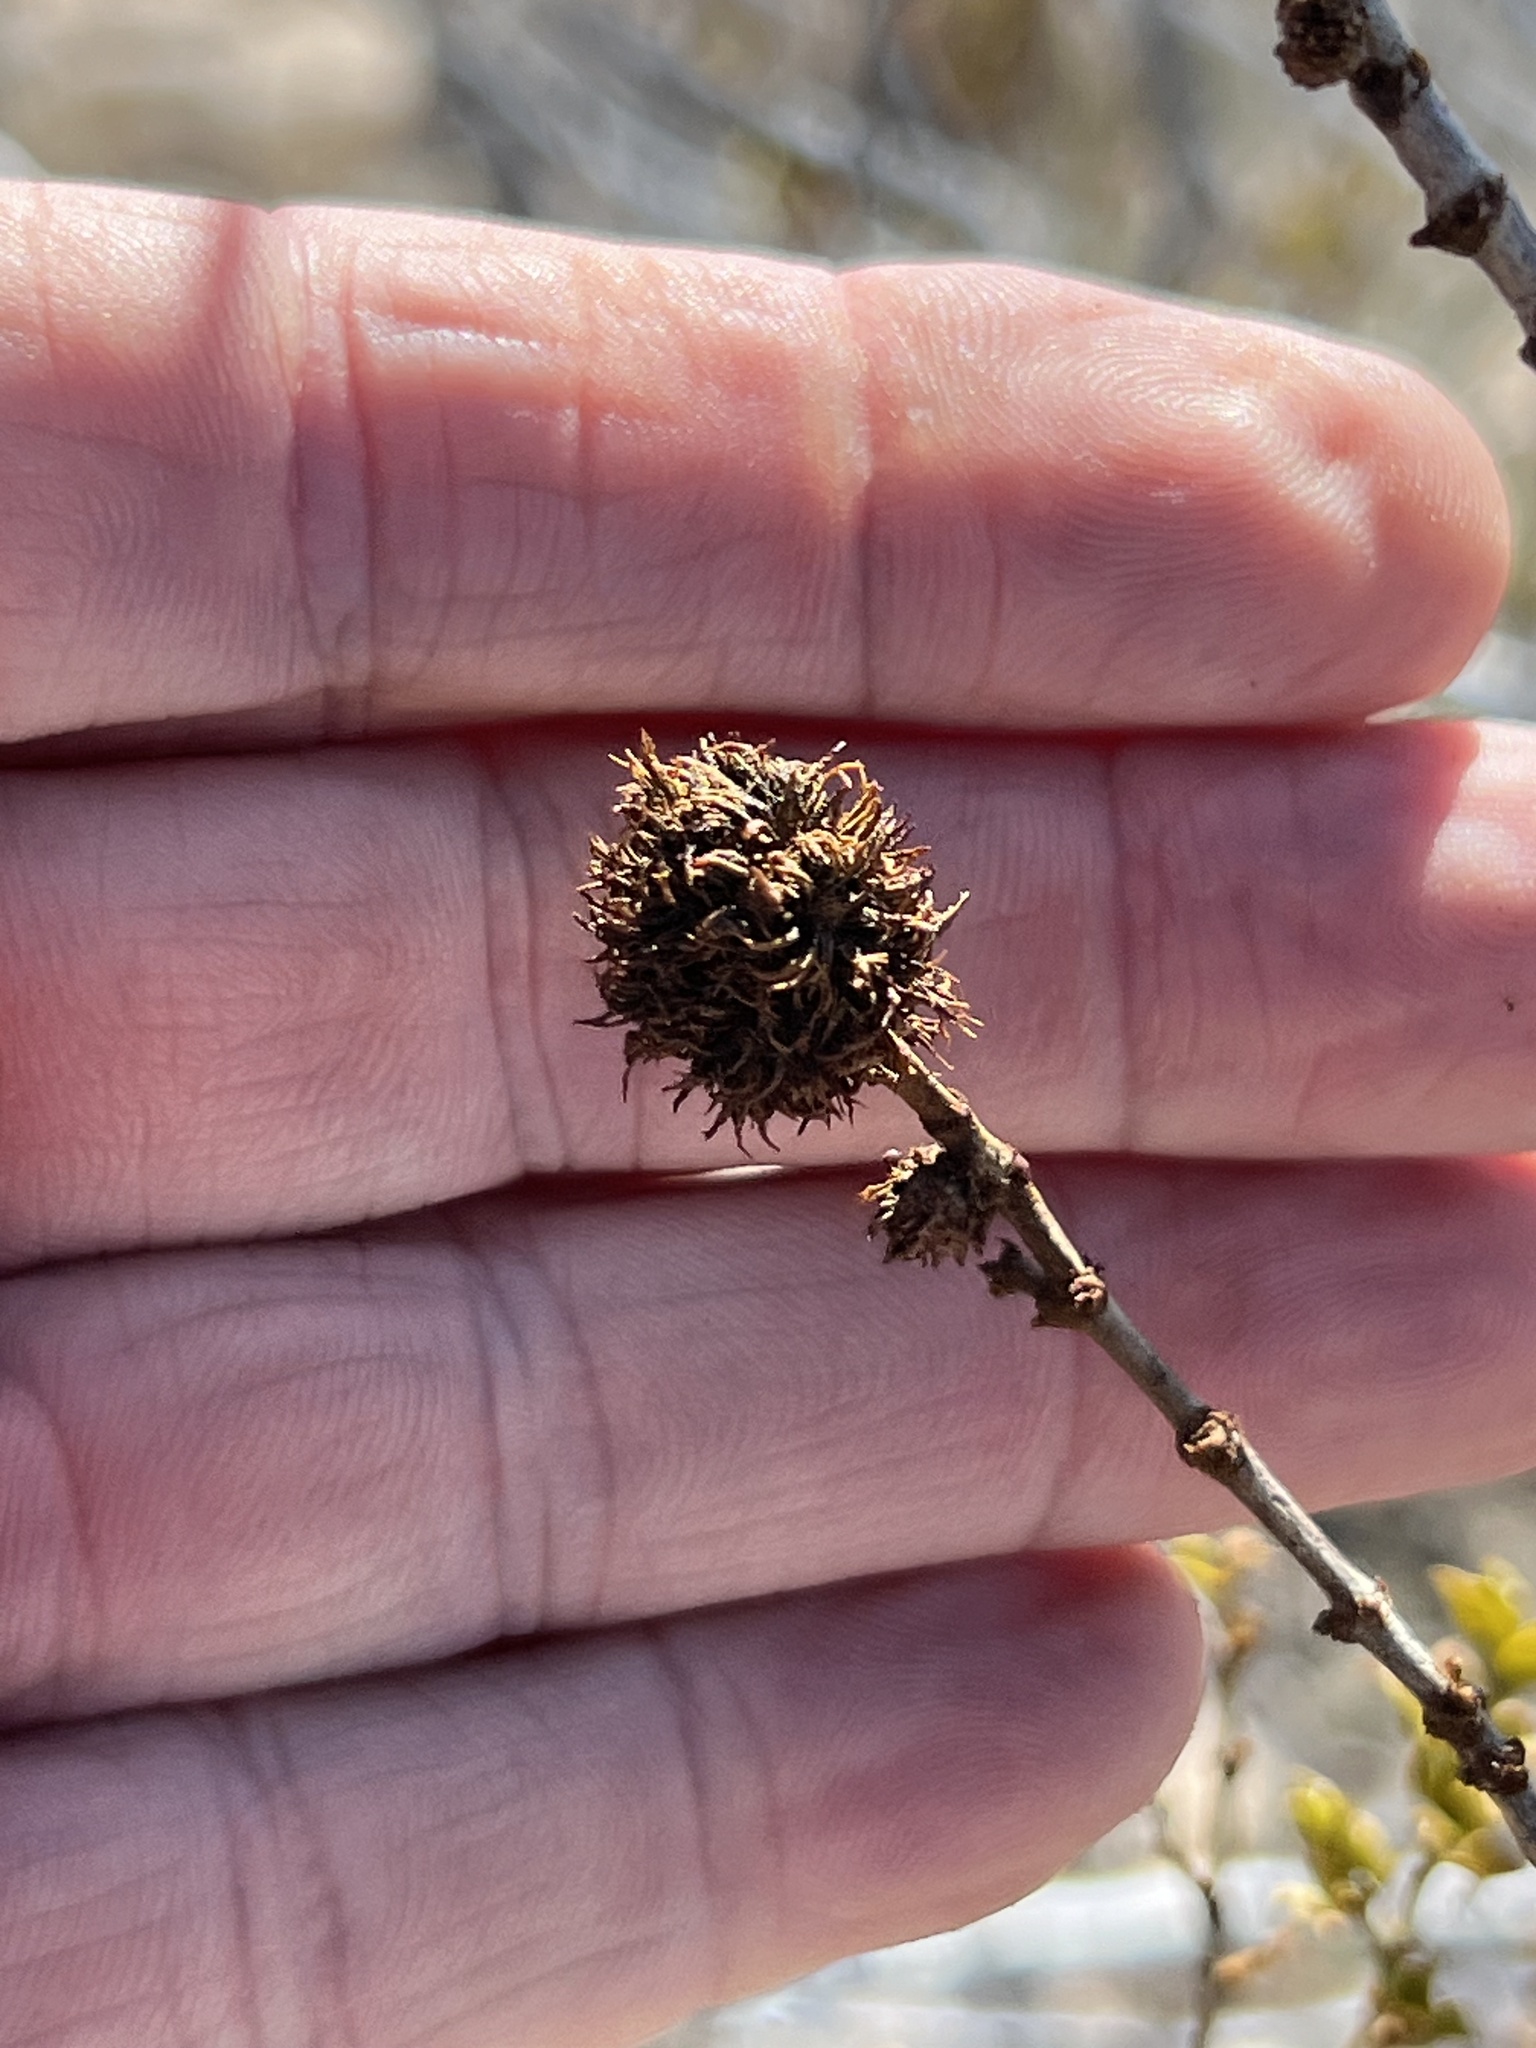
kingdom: Animalia
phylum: Arthropoda
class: Insecta
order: Diptera
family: Cecidomyiidae
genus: Asphondylia
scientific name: Asphondylia auripila
